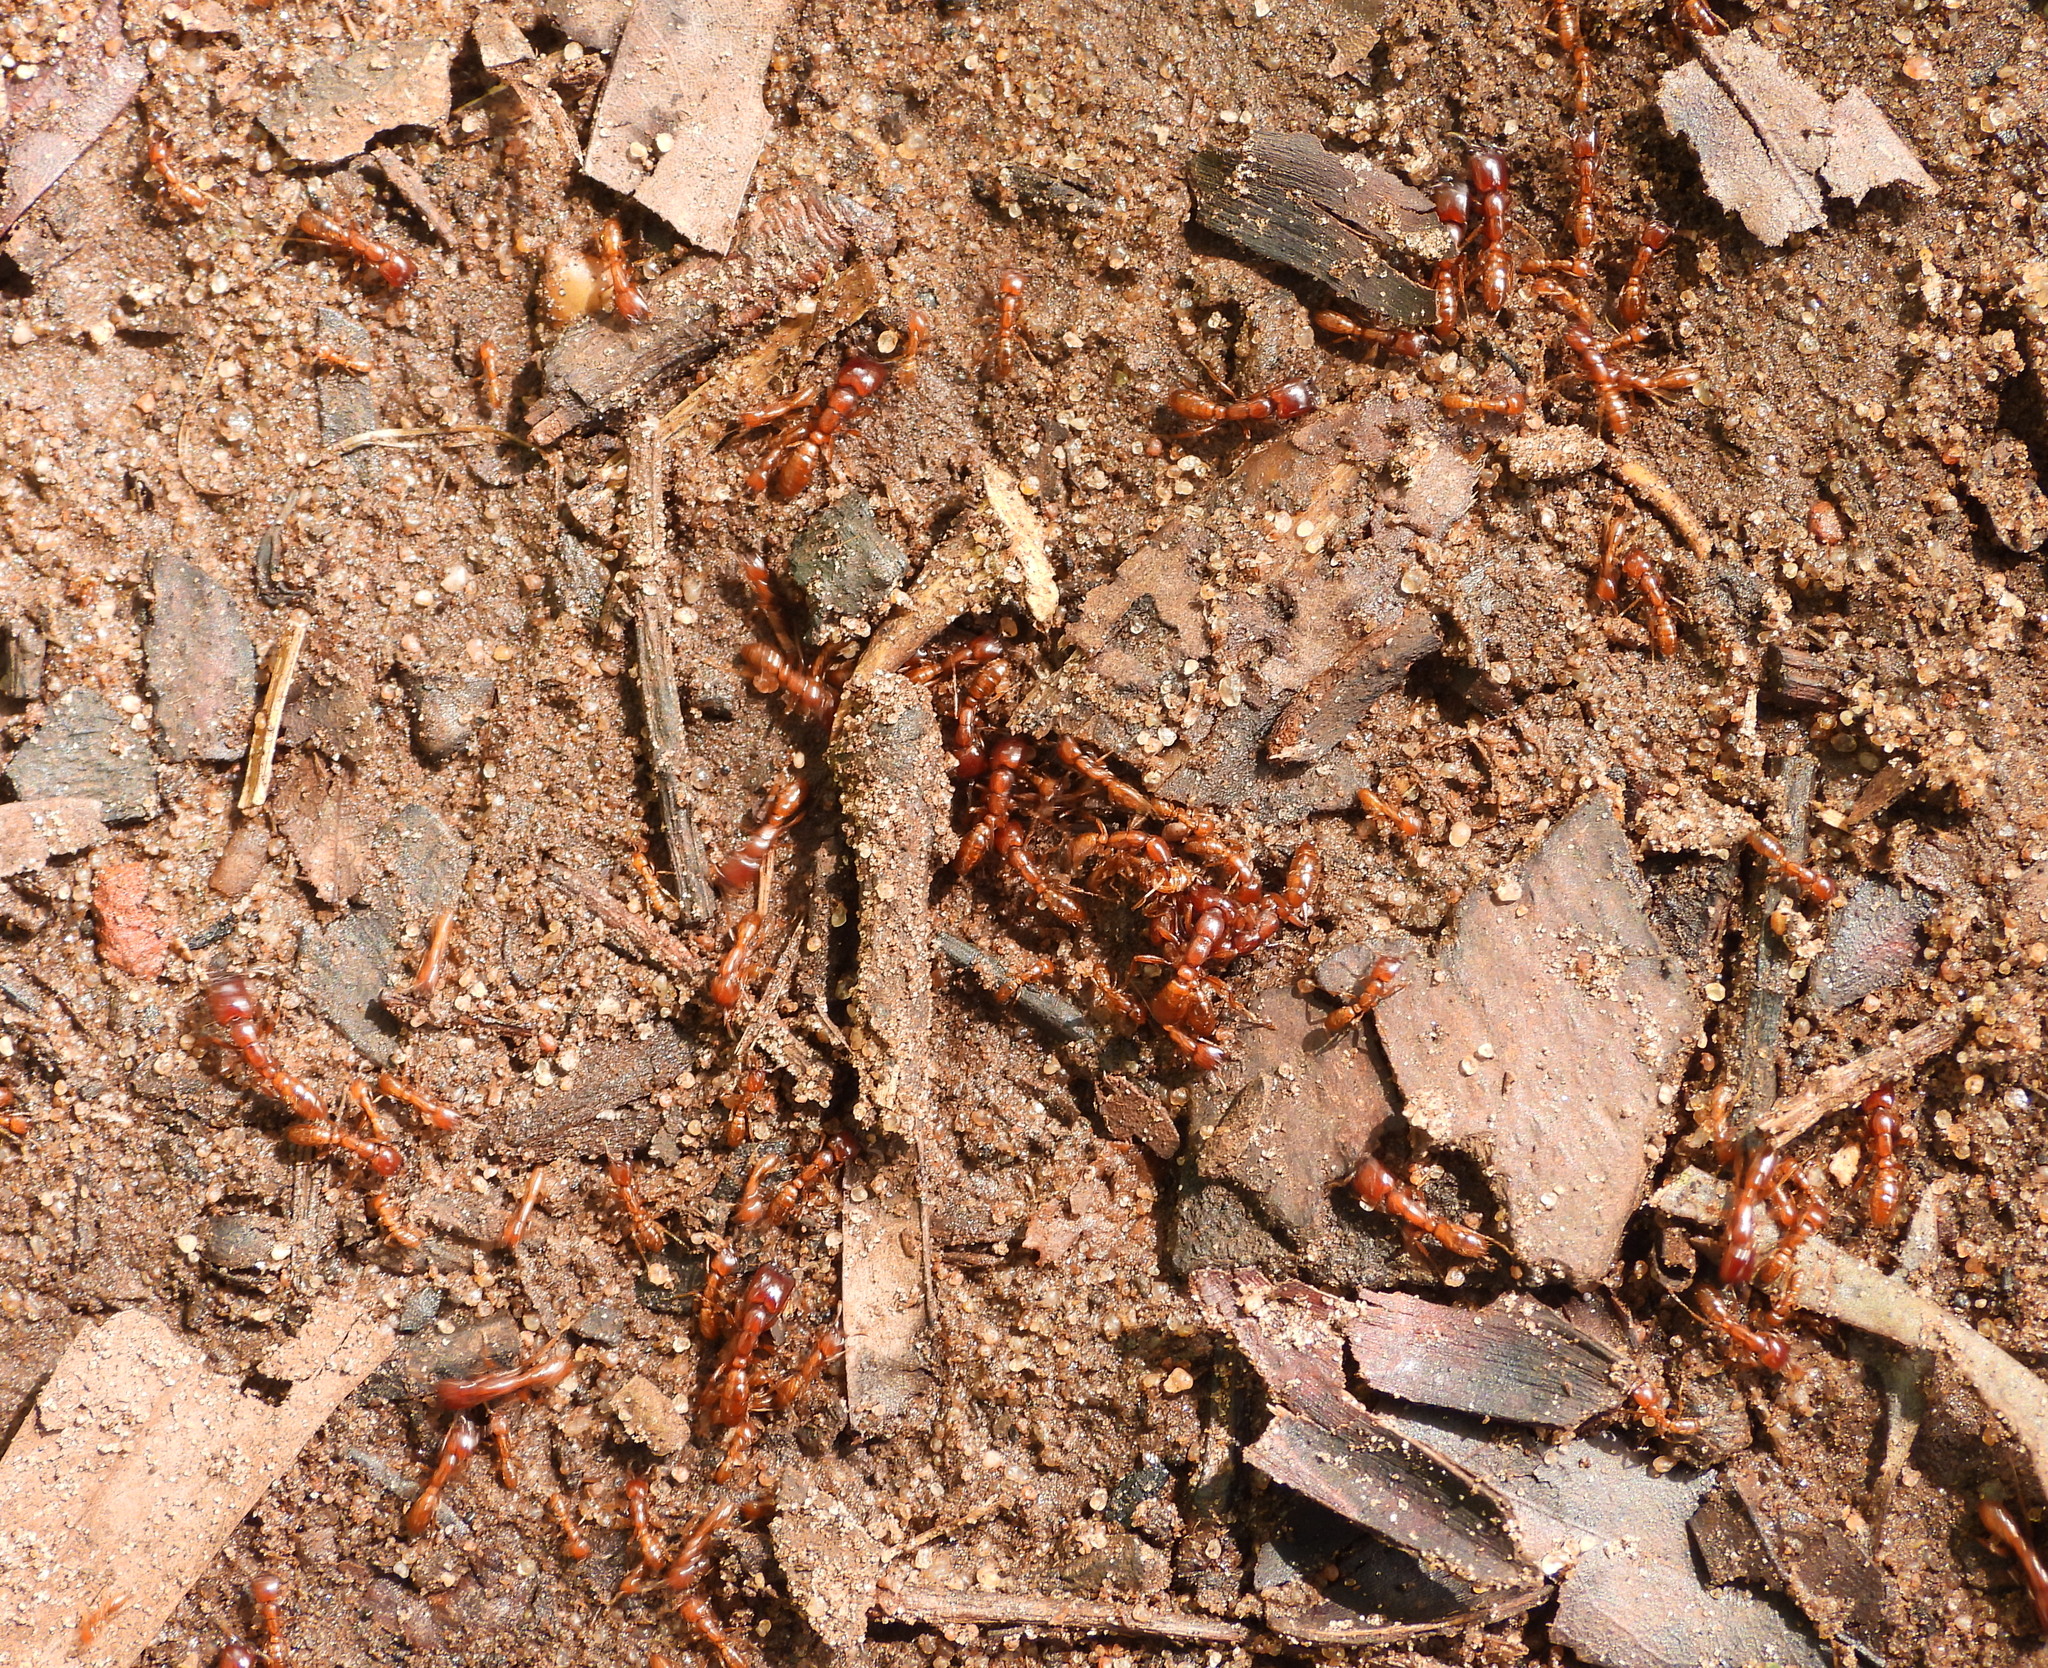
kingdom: Animalia
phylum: Arthropoda
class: Insecta
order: Hymenoptera
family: Formicidae
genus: Dorylus
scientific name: Dorylus helvolus
